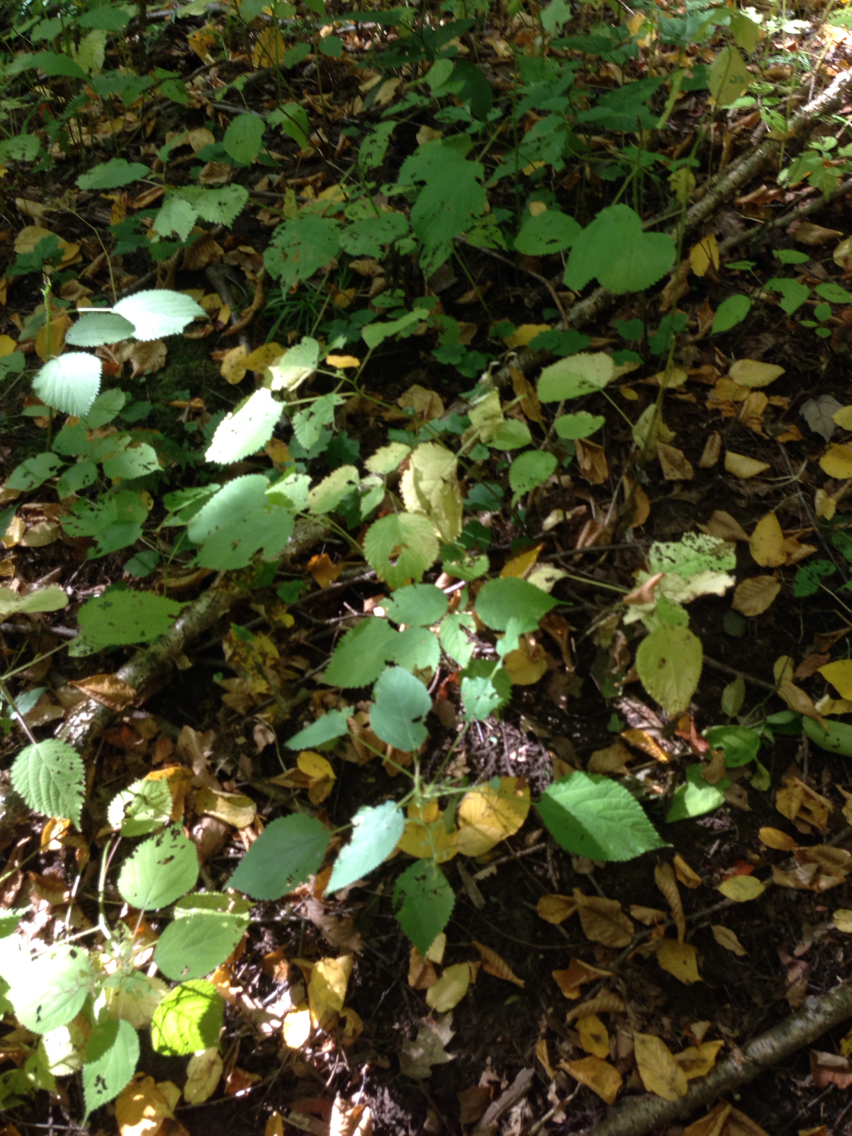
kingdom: Plantae
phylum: Tracheophyta
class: Magnoliopsida
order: Rosales
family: Urticaceae
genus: Laportea
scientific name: Laportea canadensis
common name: Canada nettle
